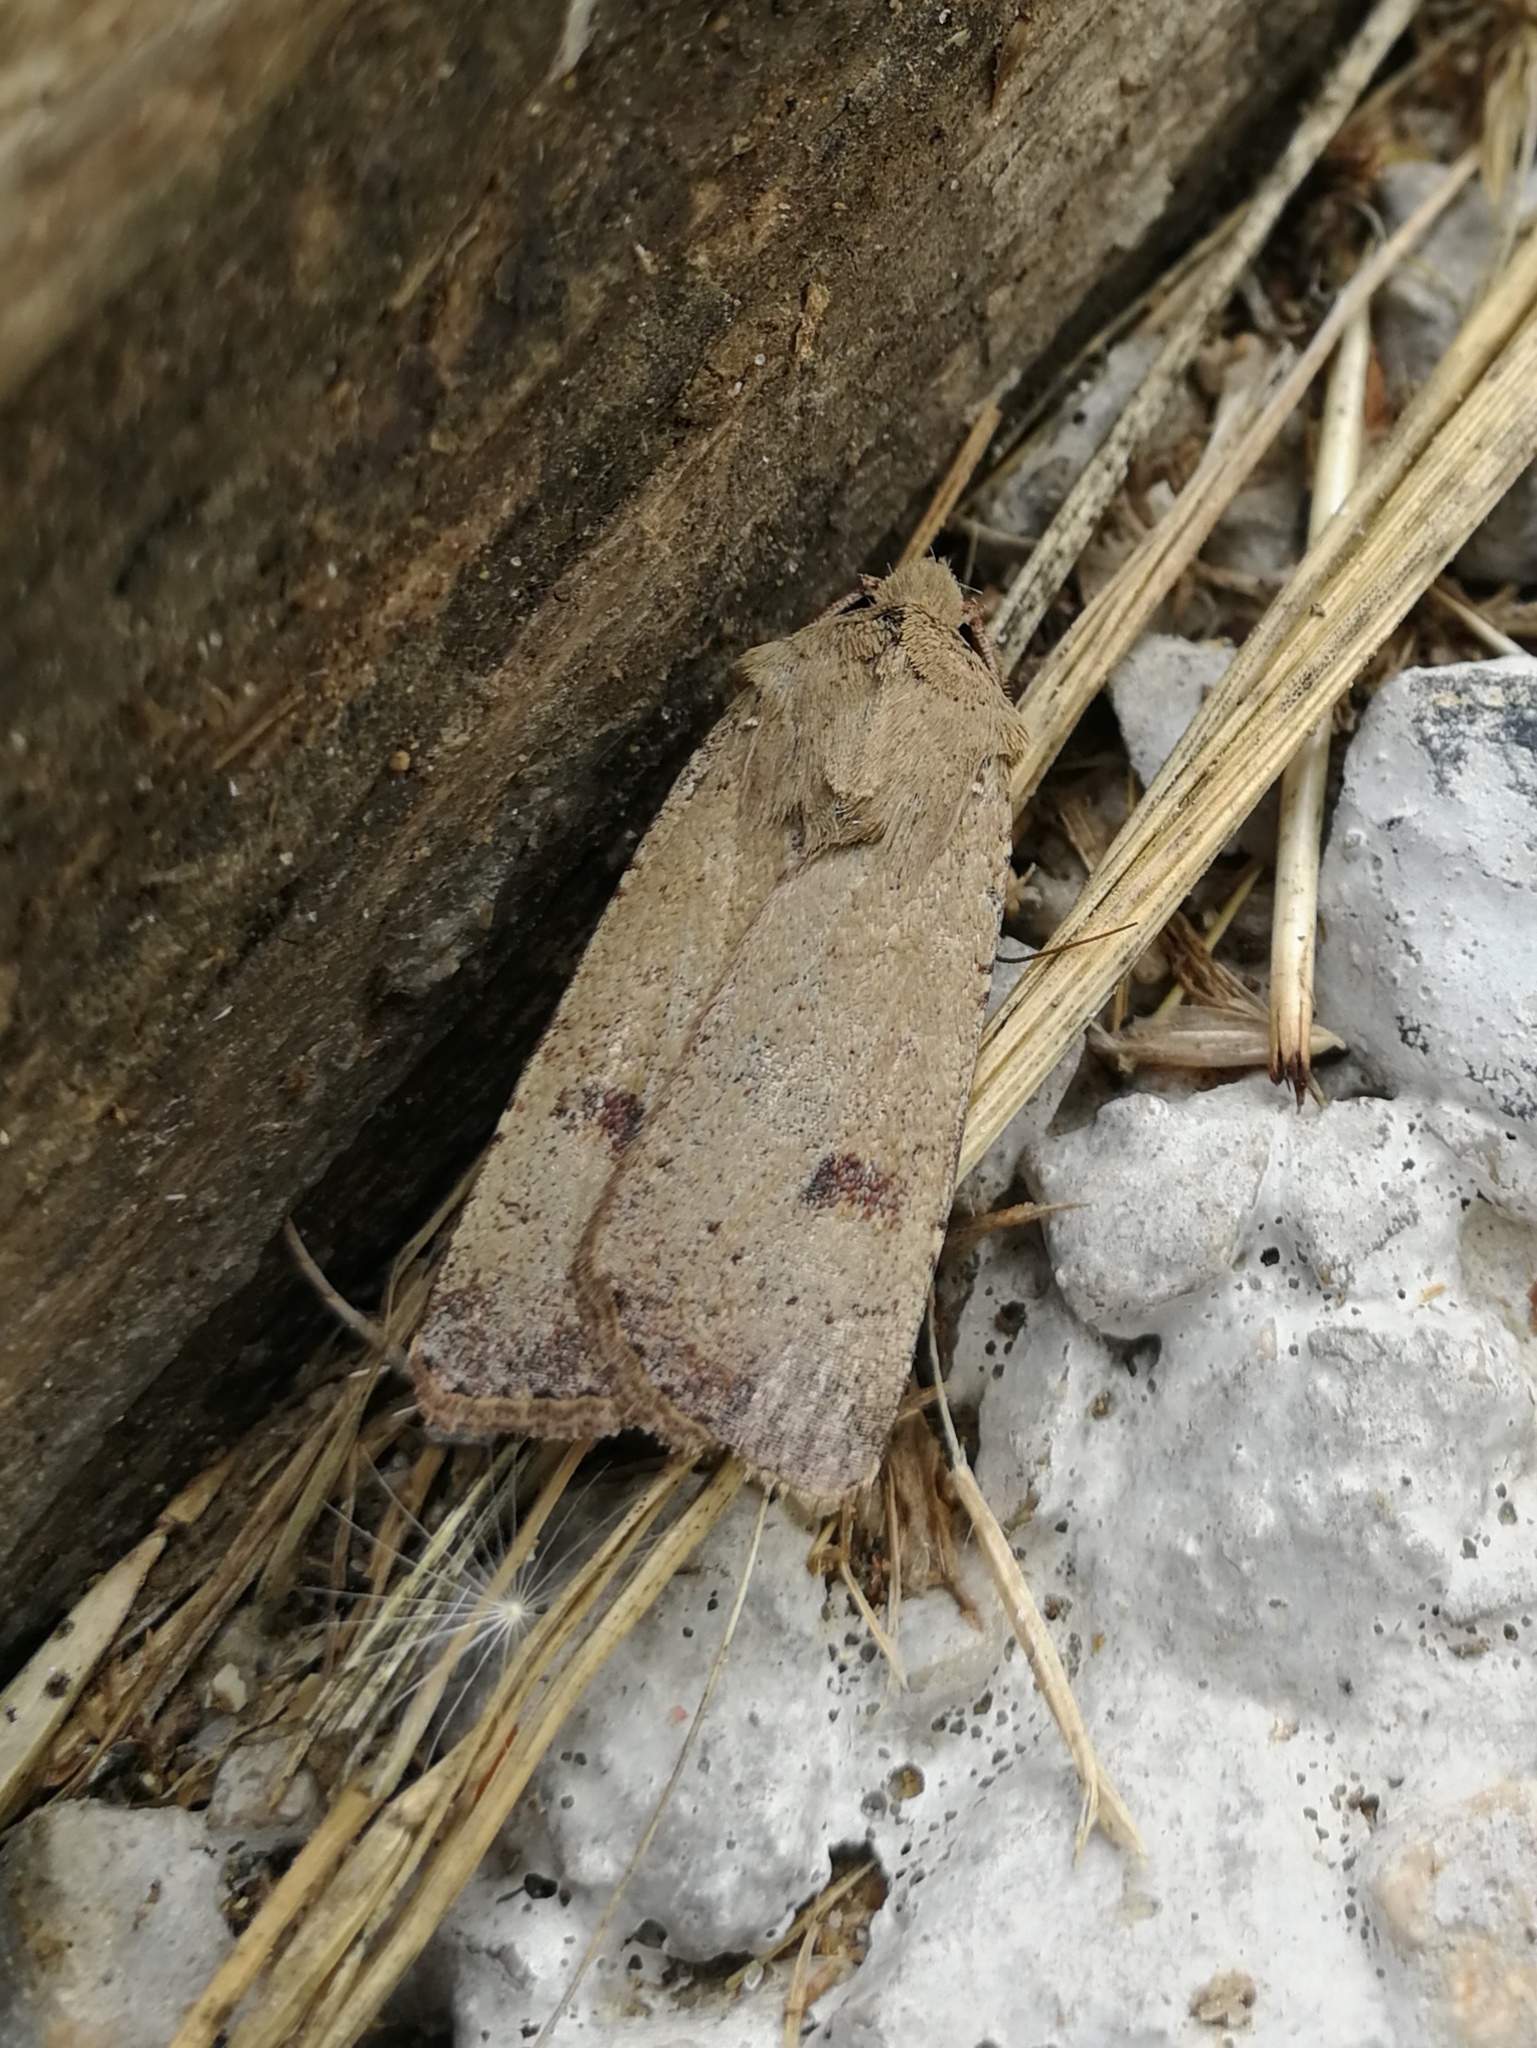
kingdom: Animalia
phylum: Arthropoda
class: Insecta
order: Lepidoptera
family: Noctuidae
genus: Agrotis
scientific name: Agrotis trux
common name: Crescent dart
